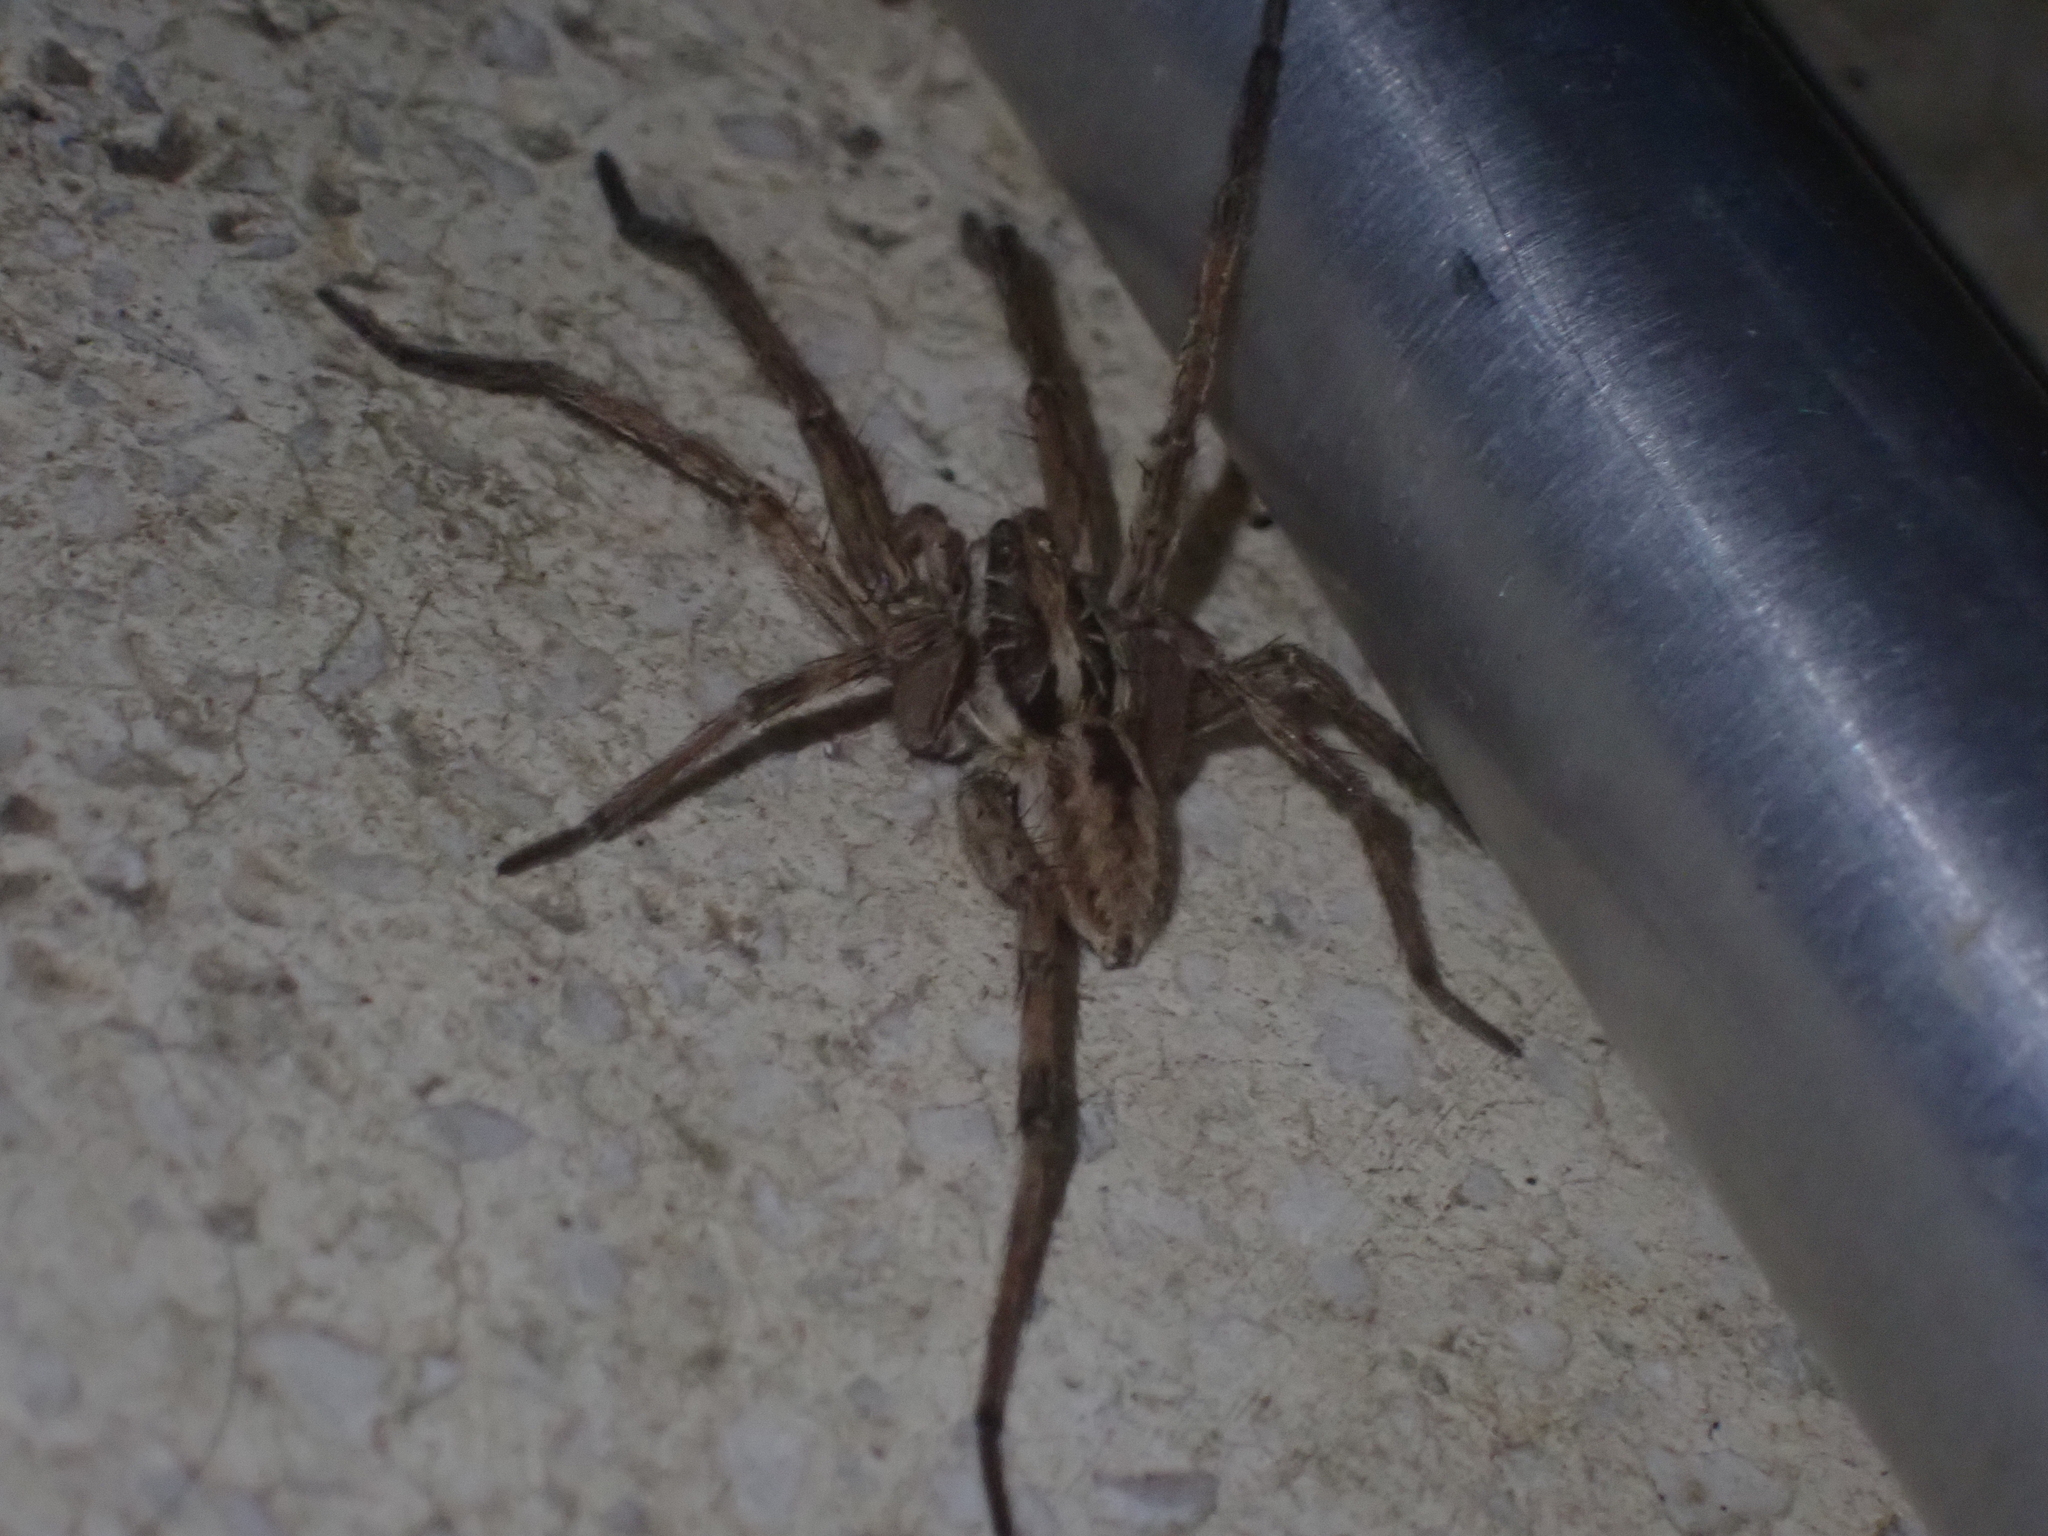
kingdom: Animalia
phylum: Arthropoda
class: Arachnida
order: Araneae
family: Lycosidae
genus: Hogna
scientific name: Hogna radiata
